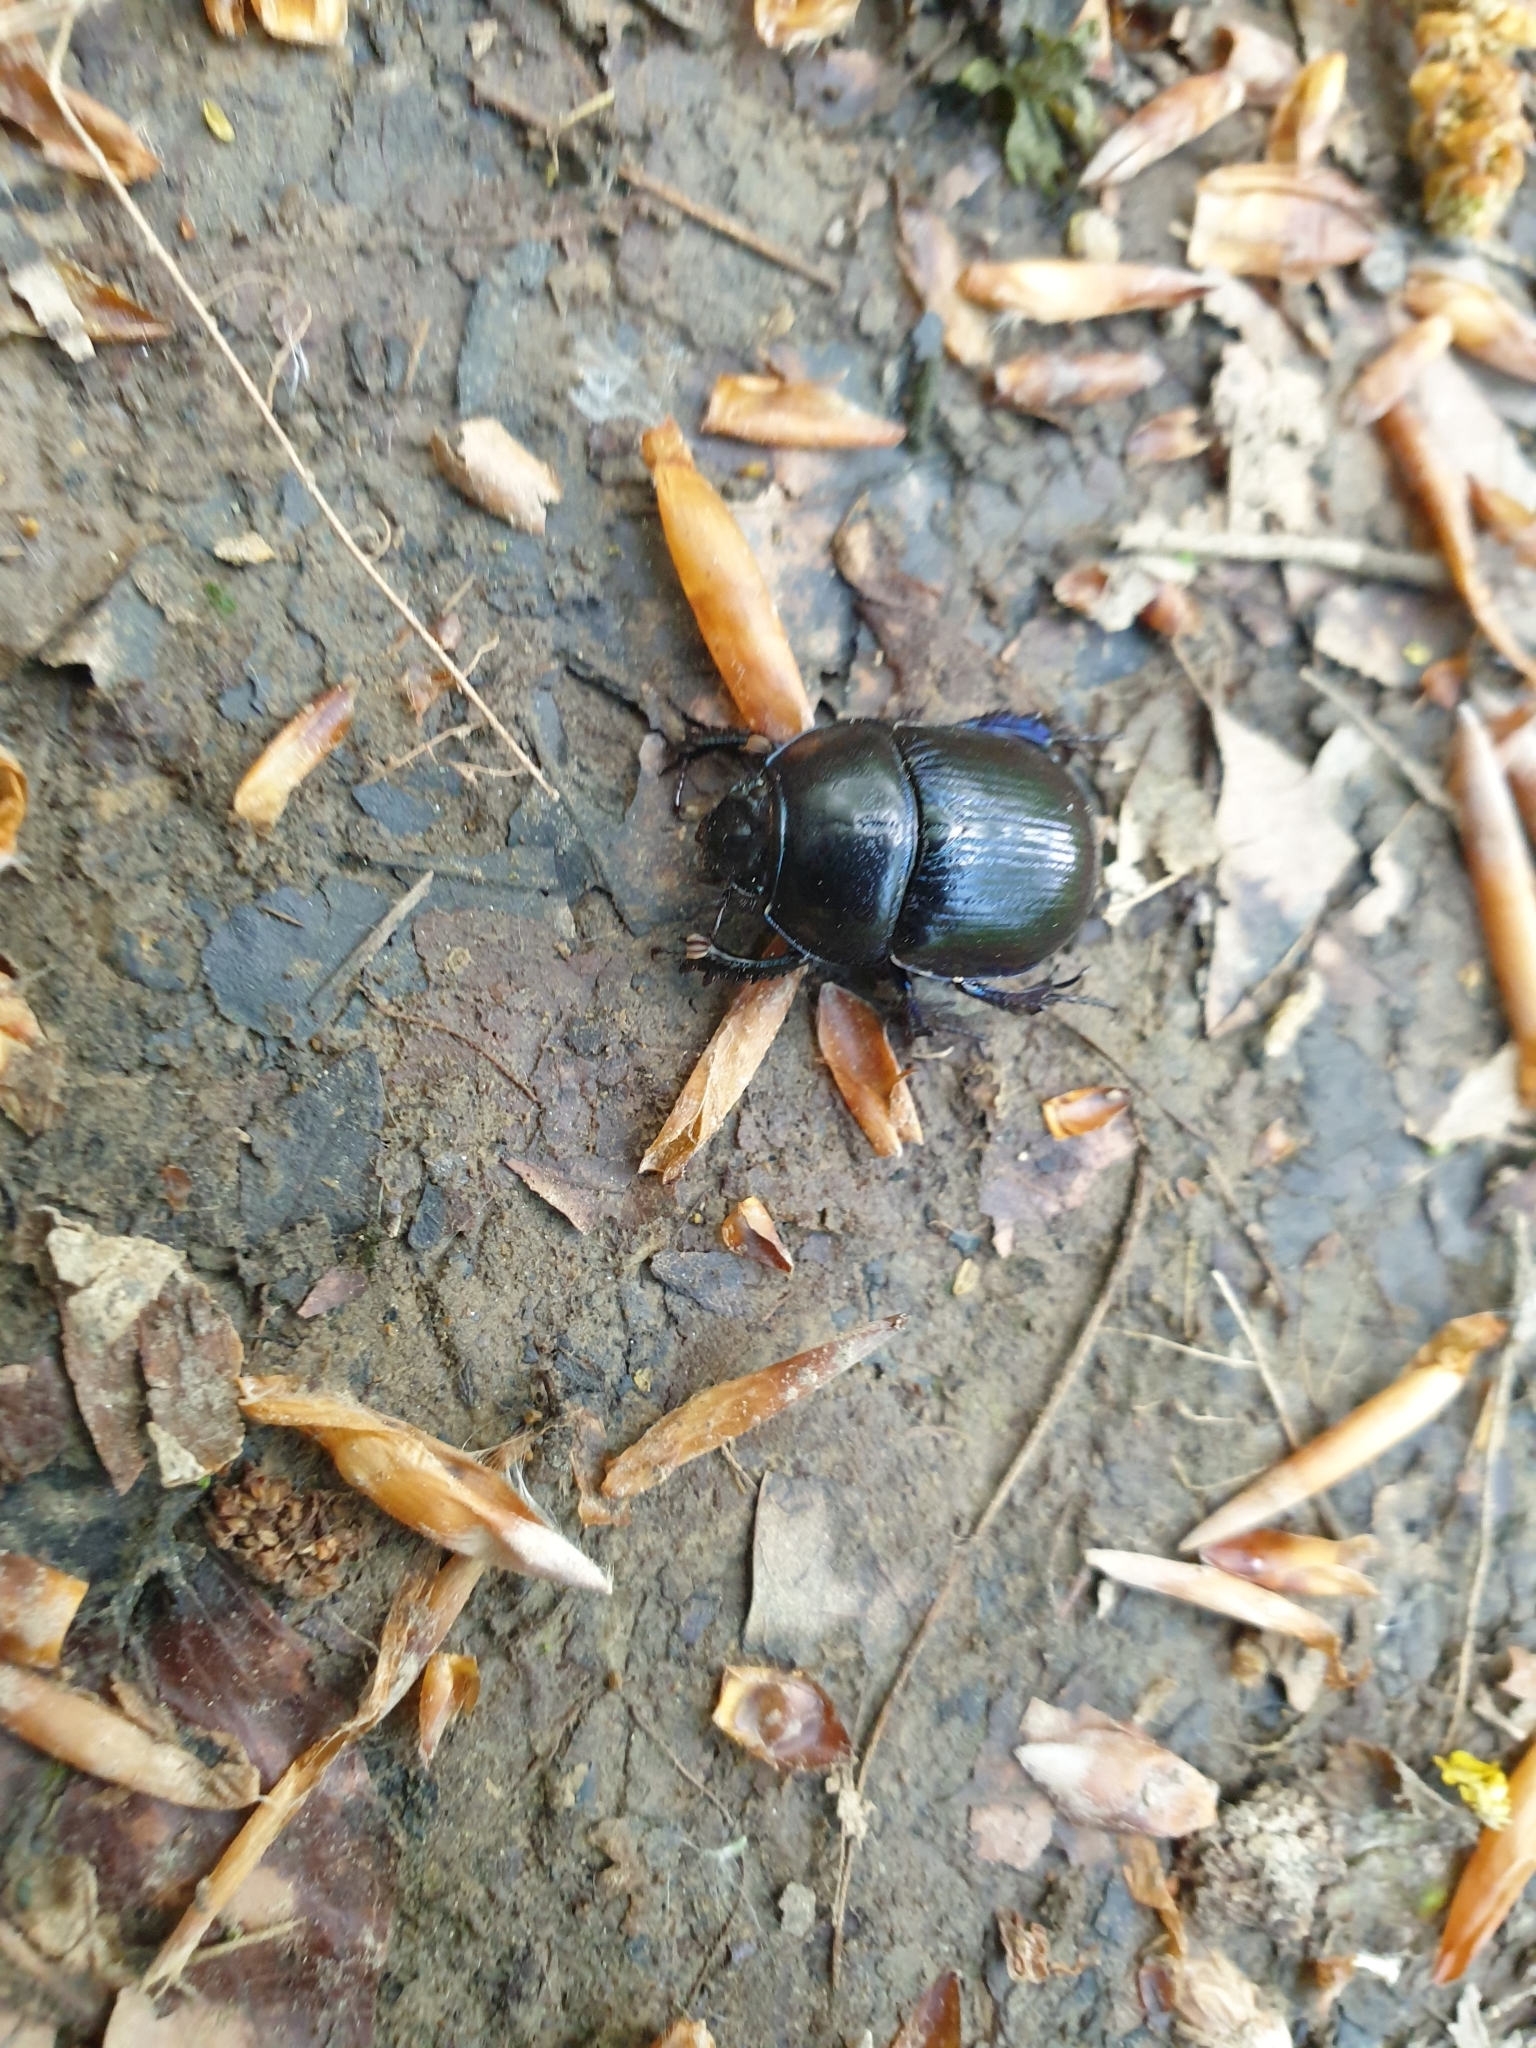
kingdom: Animalia
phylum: Arthropoda
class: Insecta
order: Coleoptera
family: Geotrupidae
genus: Anoplotrupes
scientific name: Anoplotrupes stercorosus
